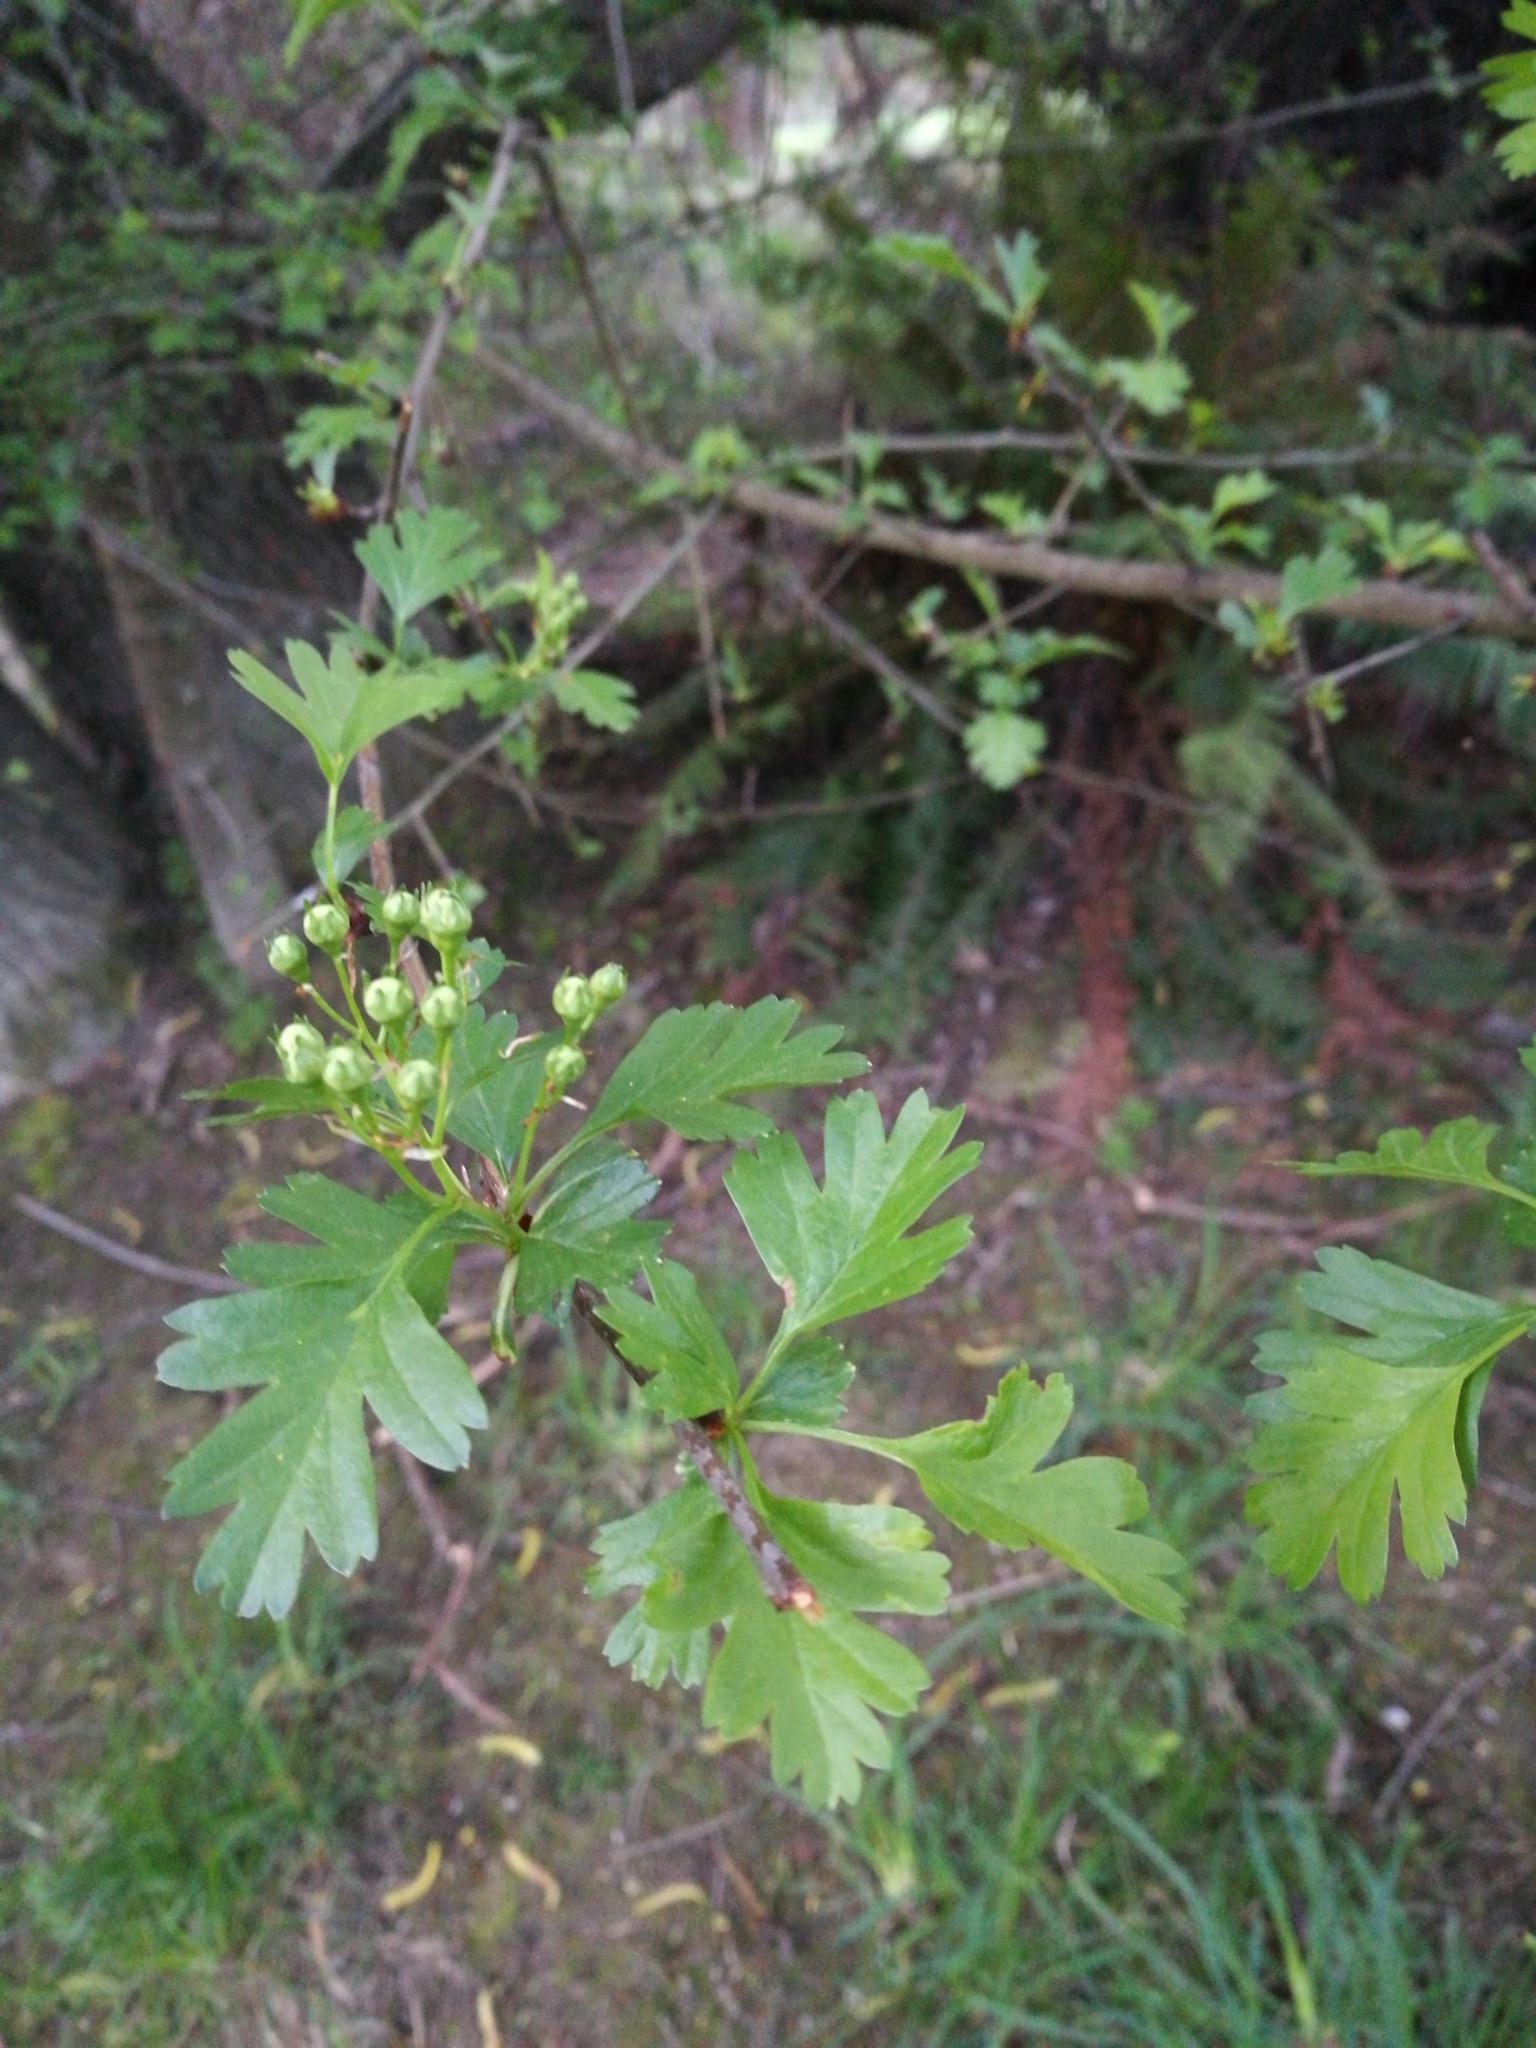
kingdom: Plantae
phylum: Tracheophyta
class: Magnoliopsida
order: Rosales
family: Rosaceae
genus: Crataegus
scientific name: Crataegus monogyna
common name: Hawthorn
